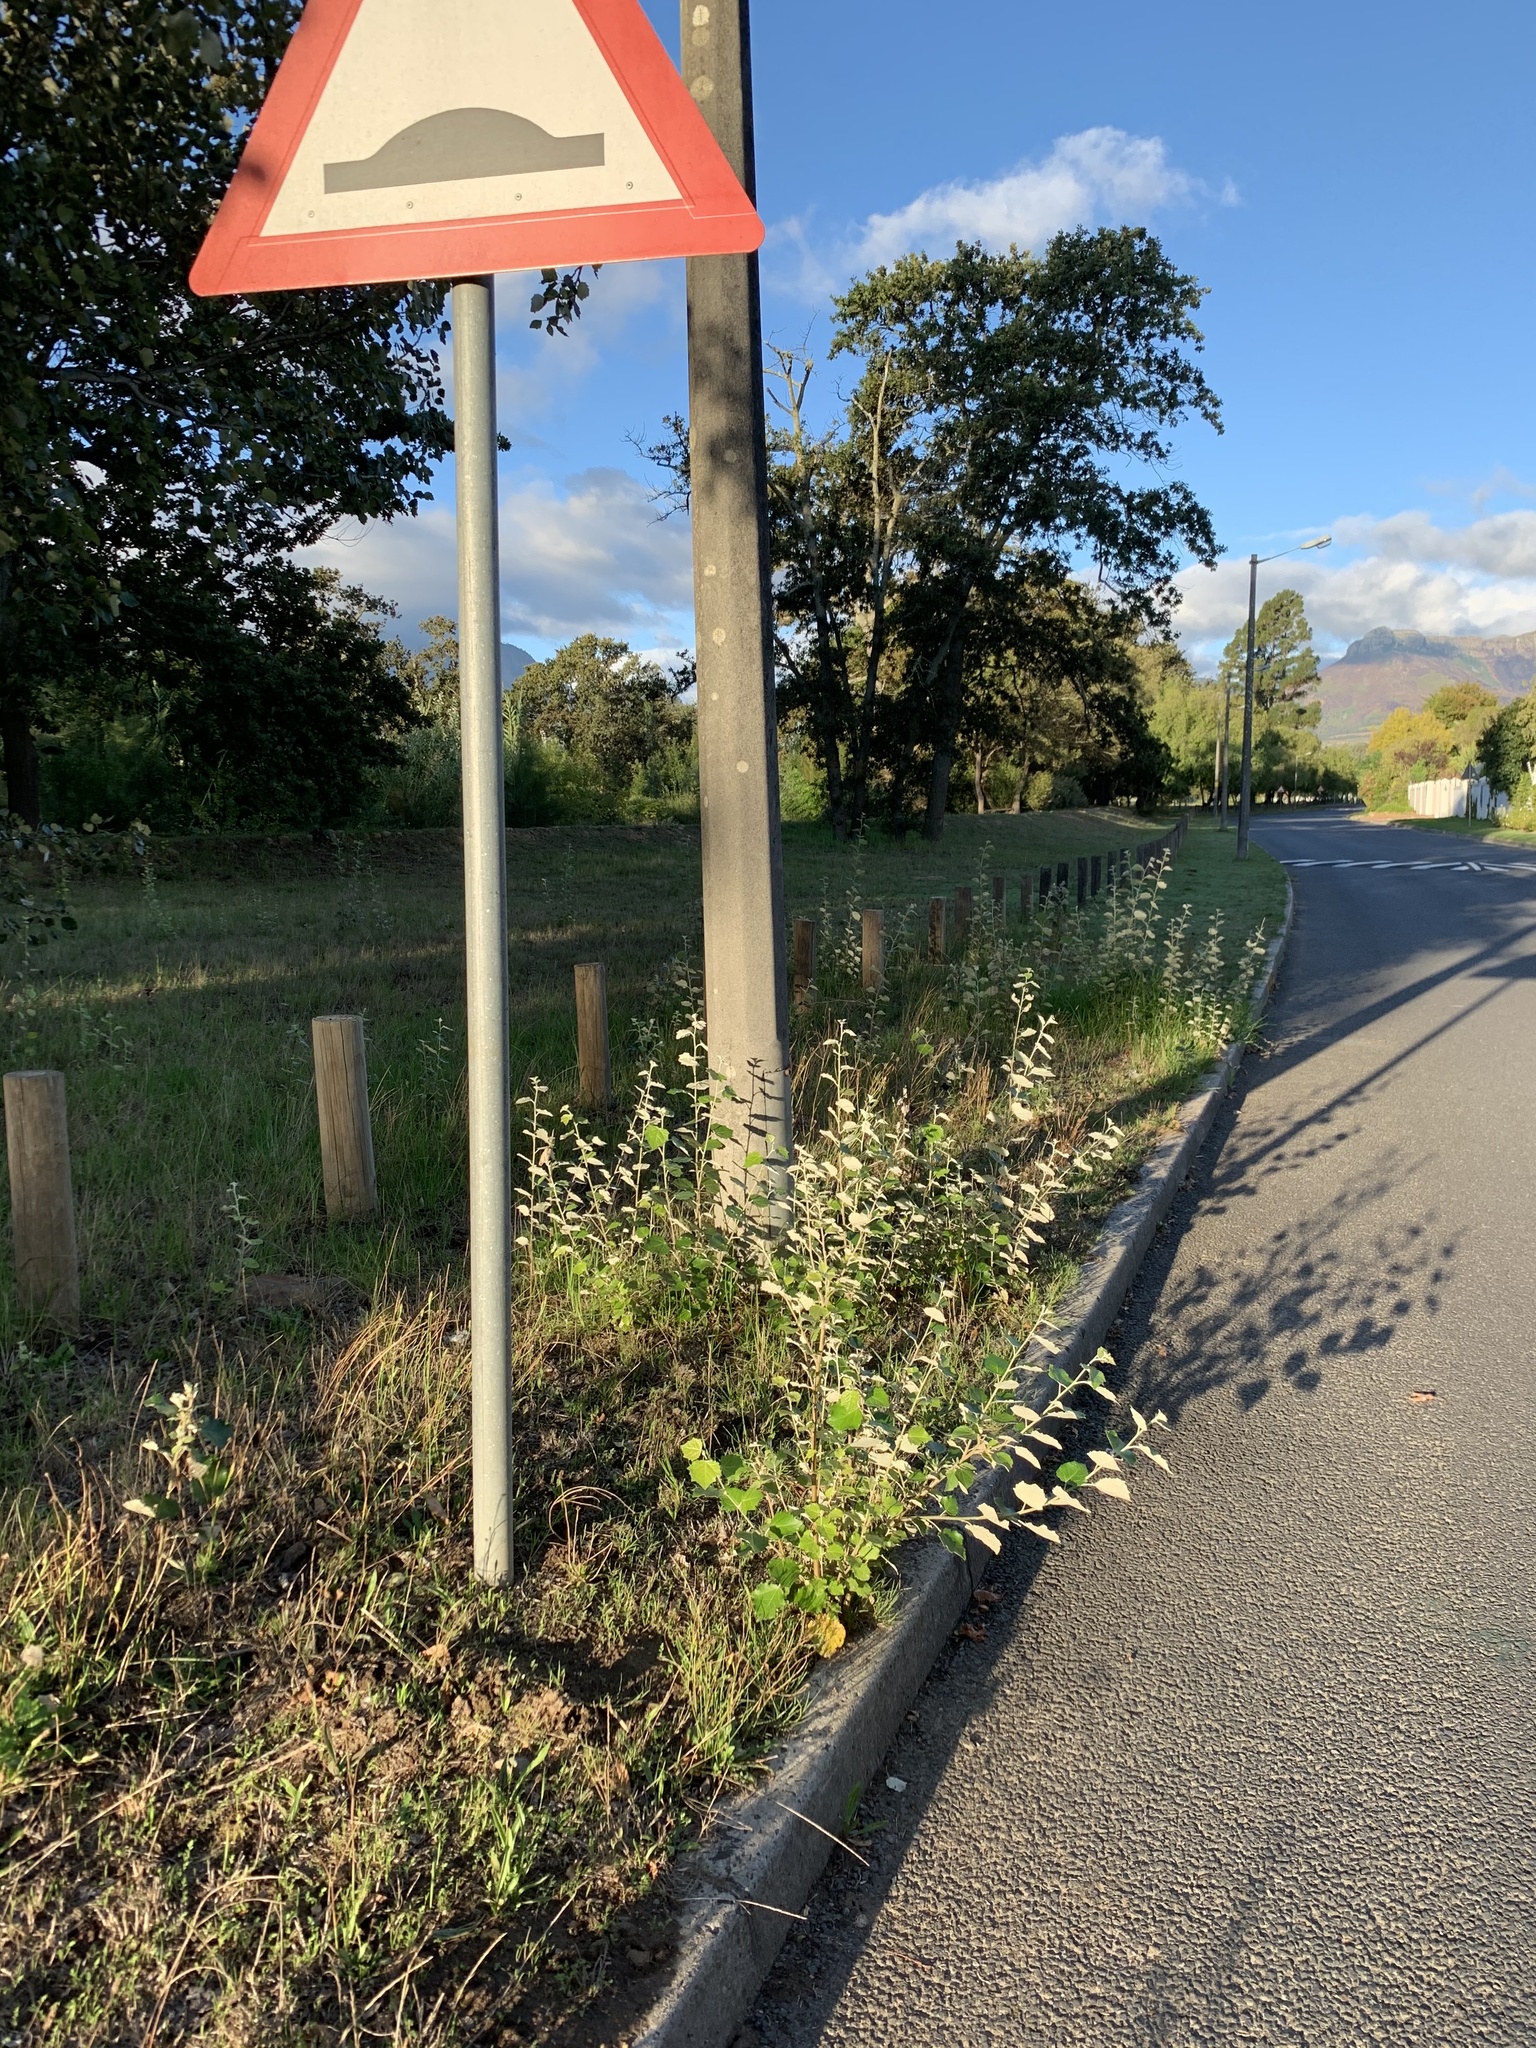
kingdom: Plantae
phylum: Tracheophyta
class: Magnoliopsida
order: Malpighiales
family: Salicaceae
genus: Populus
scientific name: Populus canescens
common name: Gray poplar
